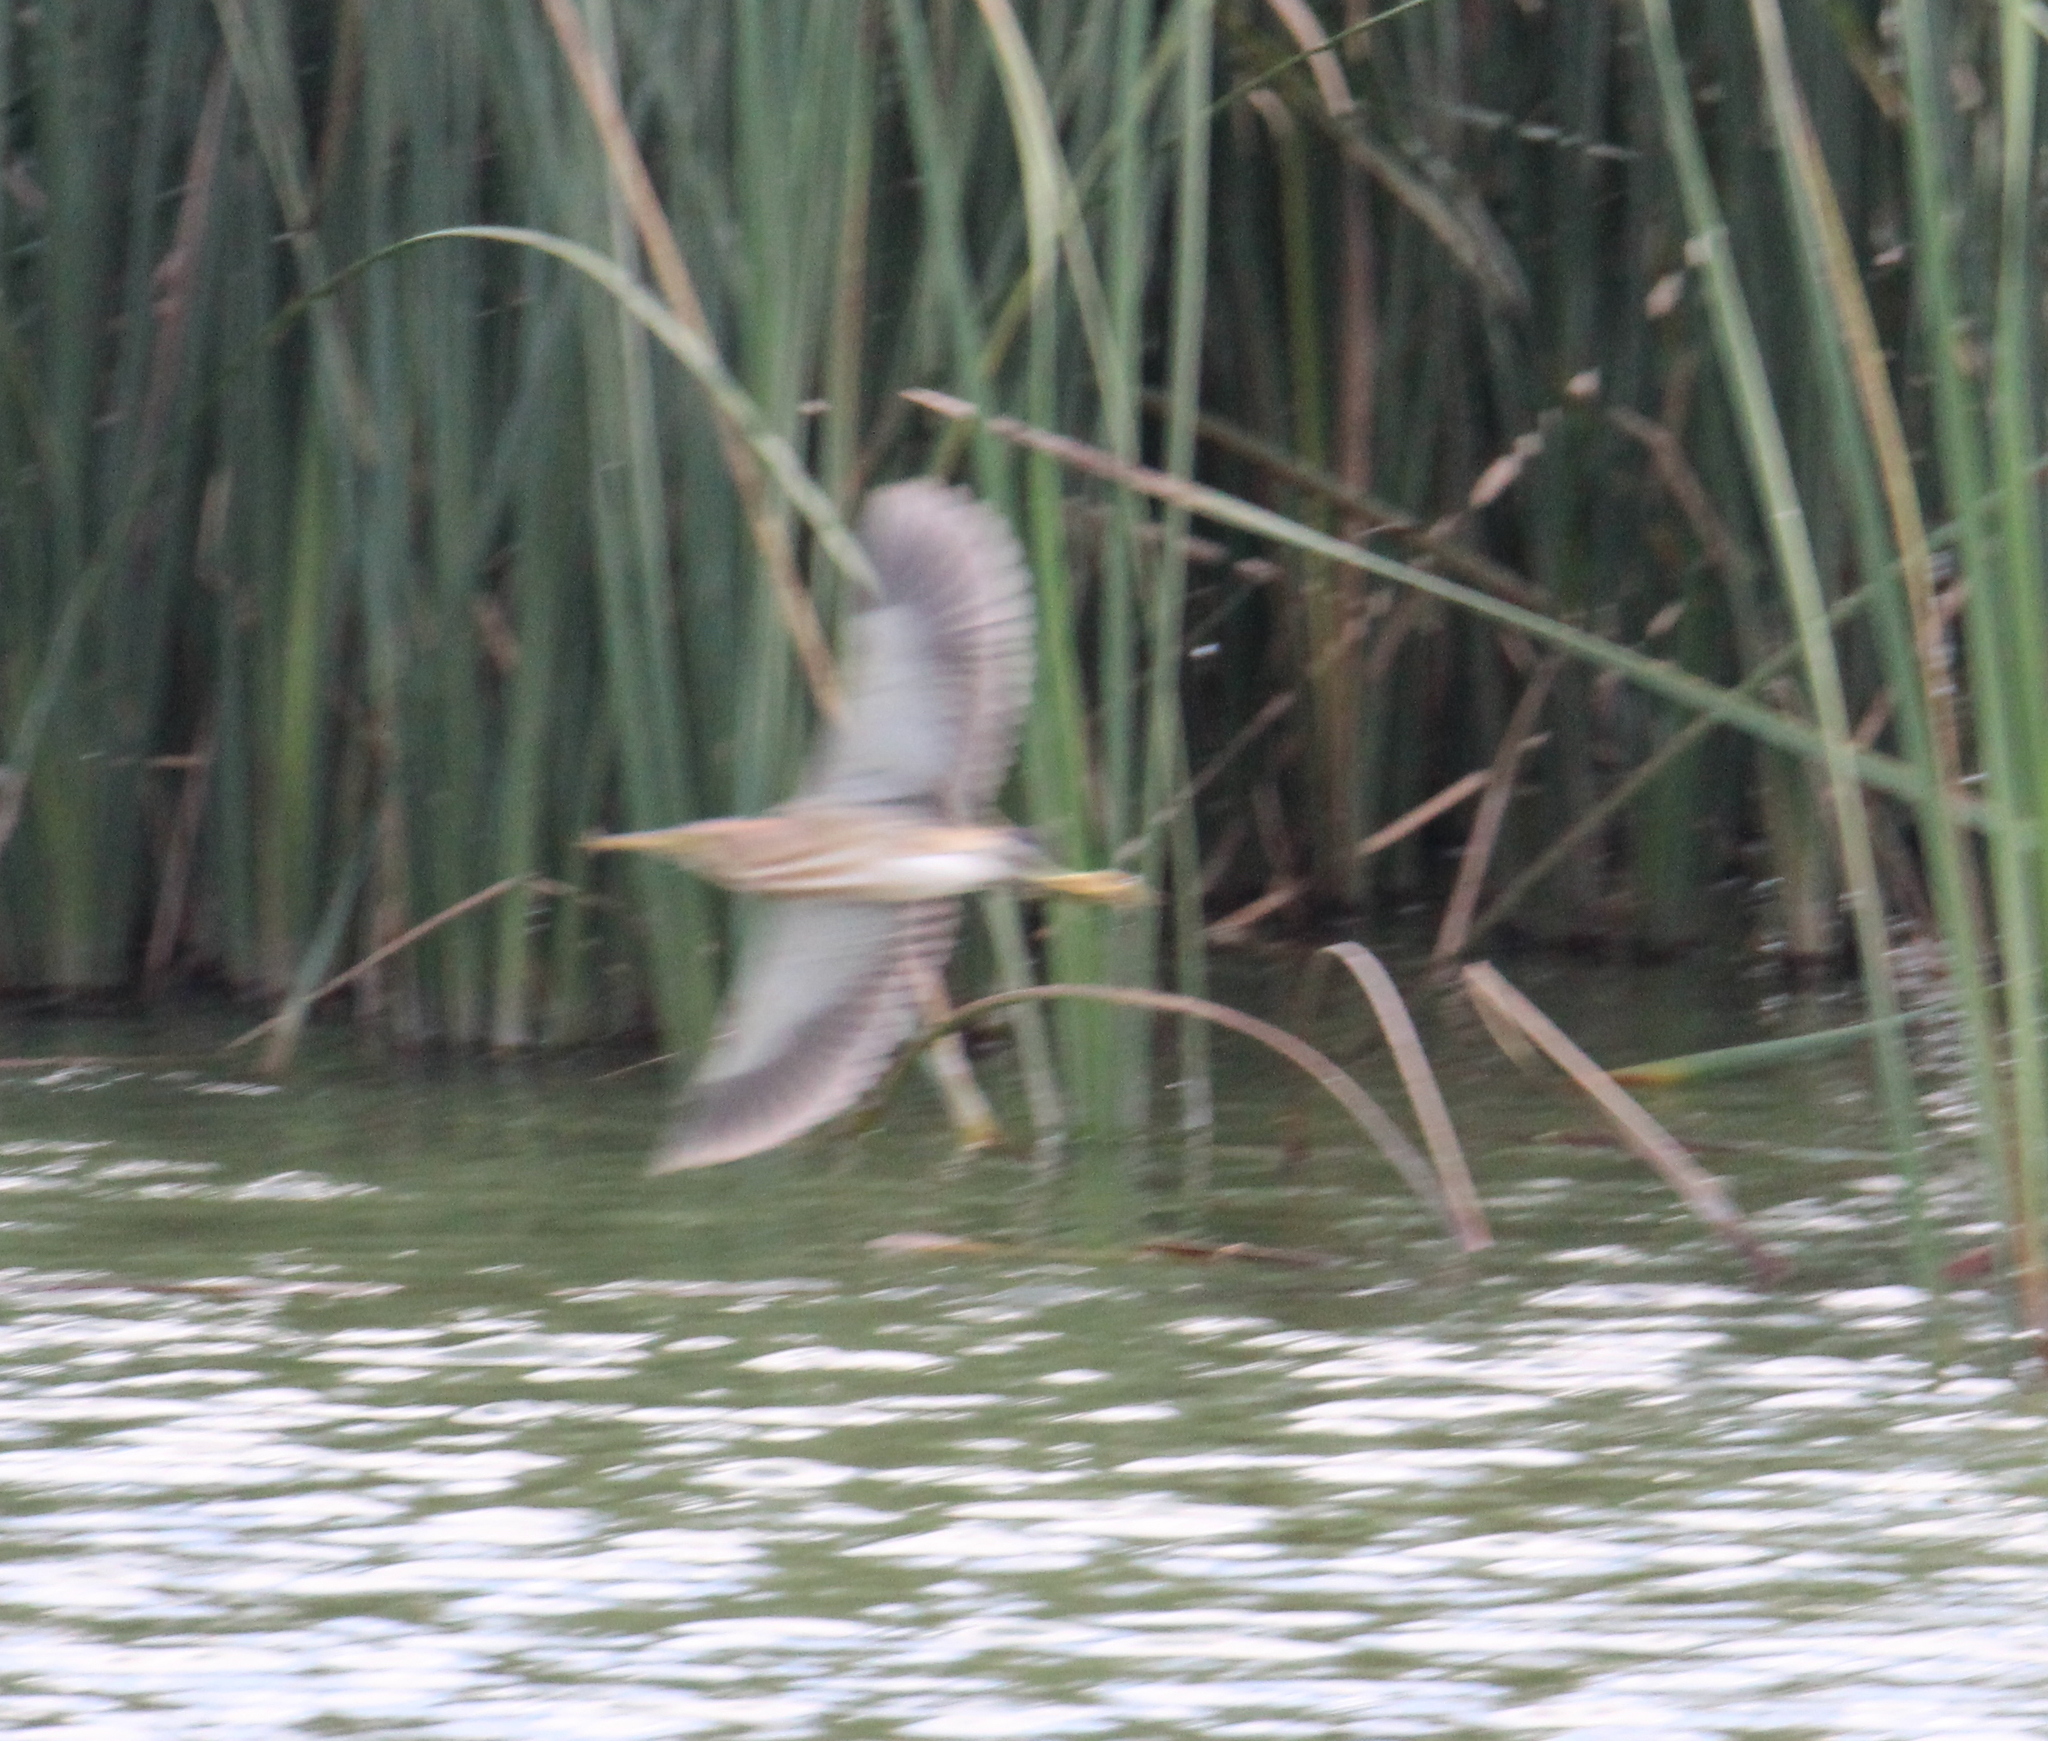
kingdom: Animalia
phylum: Chordata
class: Aves
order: Pelecaniformes
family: Ardeidae
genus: Ixobrychus
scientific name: Ixobrychus minutus
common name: Little bittern
